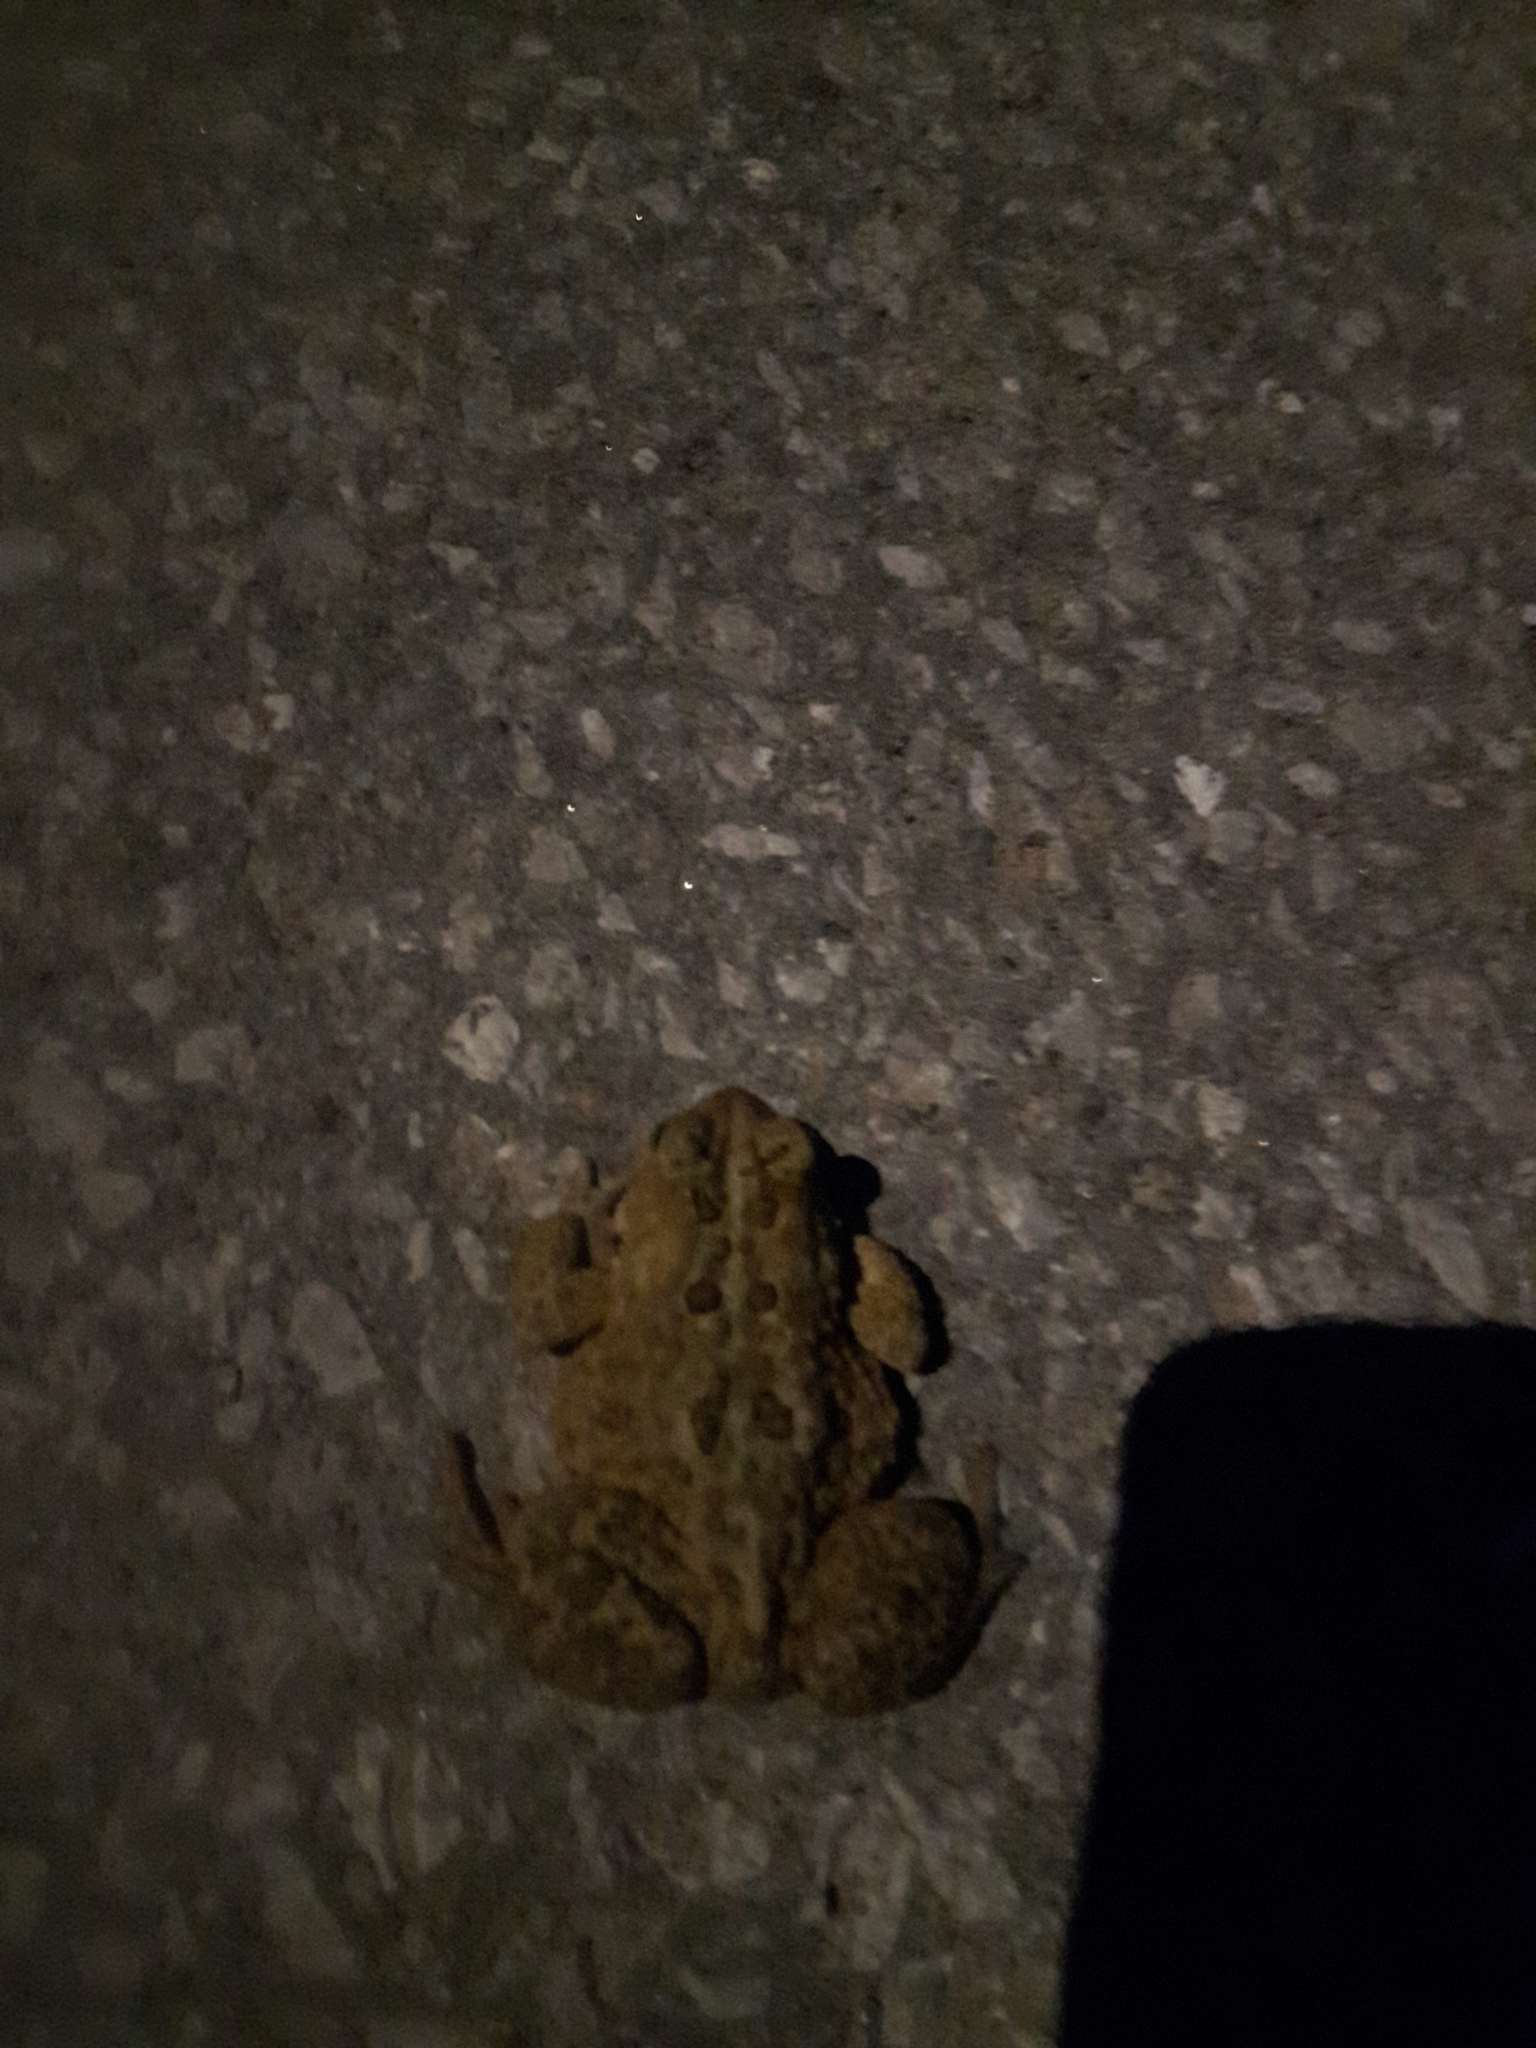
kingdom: Animalia
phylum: Chordata
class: Amphibia
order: Anura
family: Bufonidae
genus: Anaxyrus
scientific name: Anaxyrus americanus
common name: American toad
